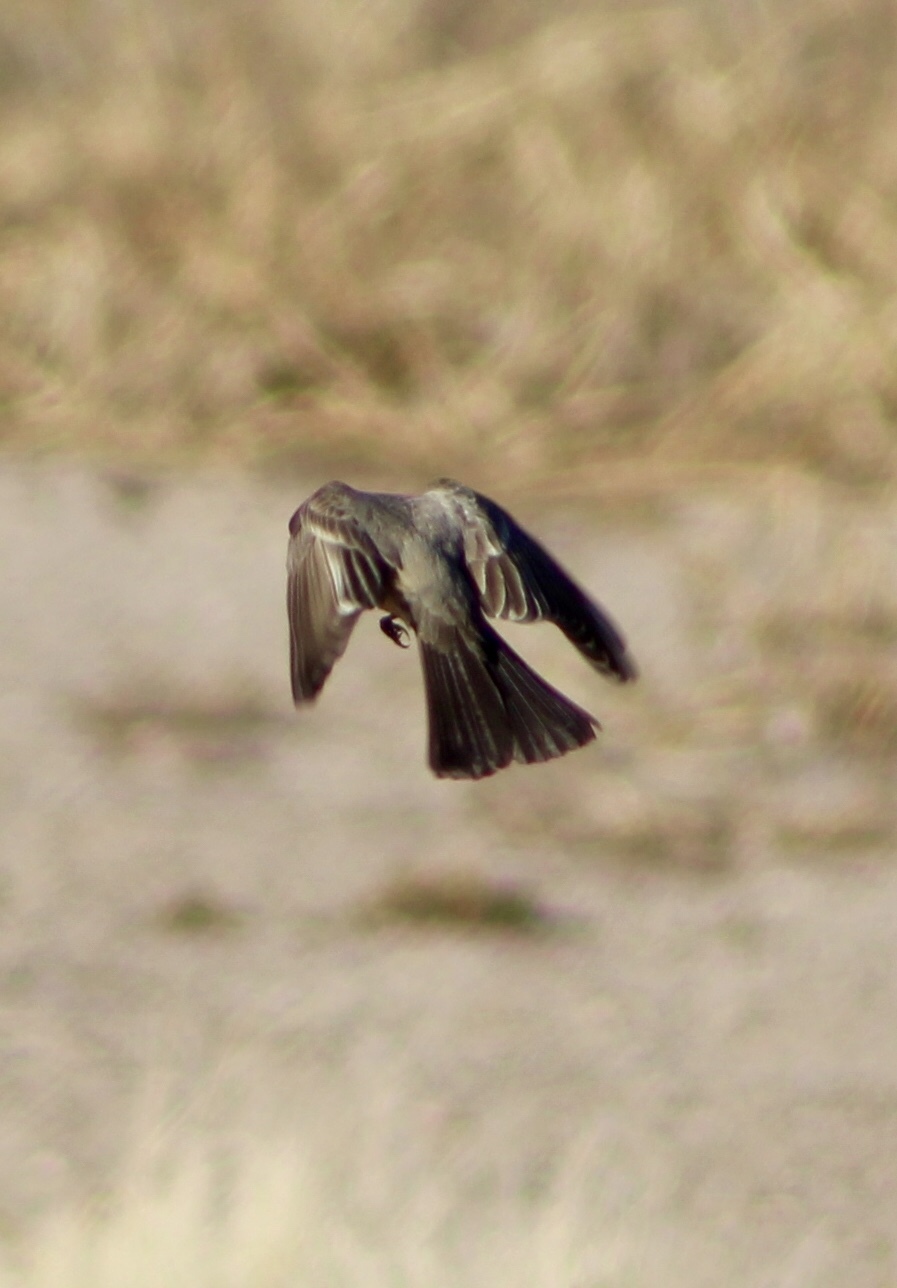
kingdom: Animalia
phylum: Chordata
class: Aves
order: Passeriformes
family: Tyrannidae
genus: Sayornis
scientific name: Sayornis saya
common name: Say's phoebe
